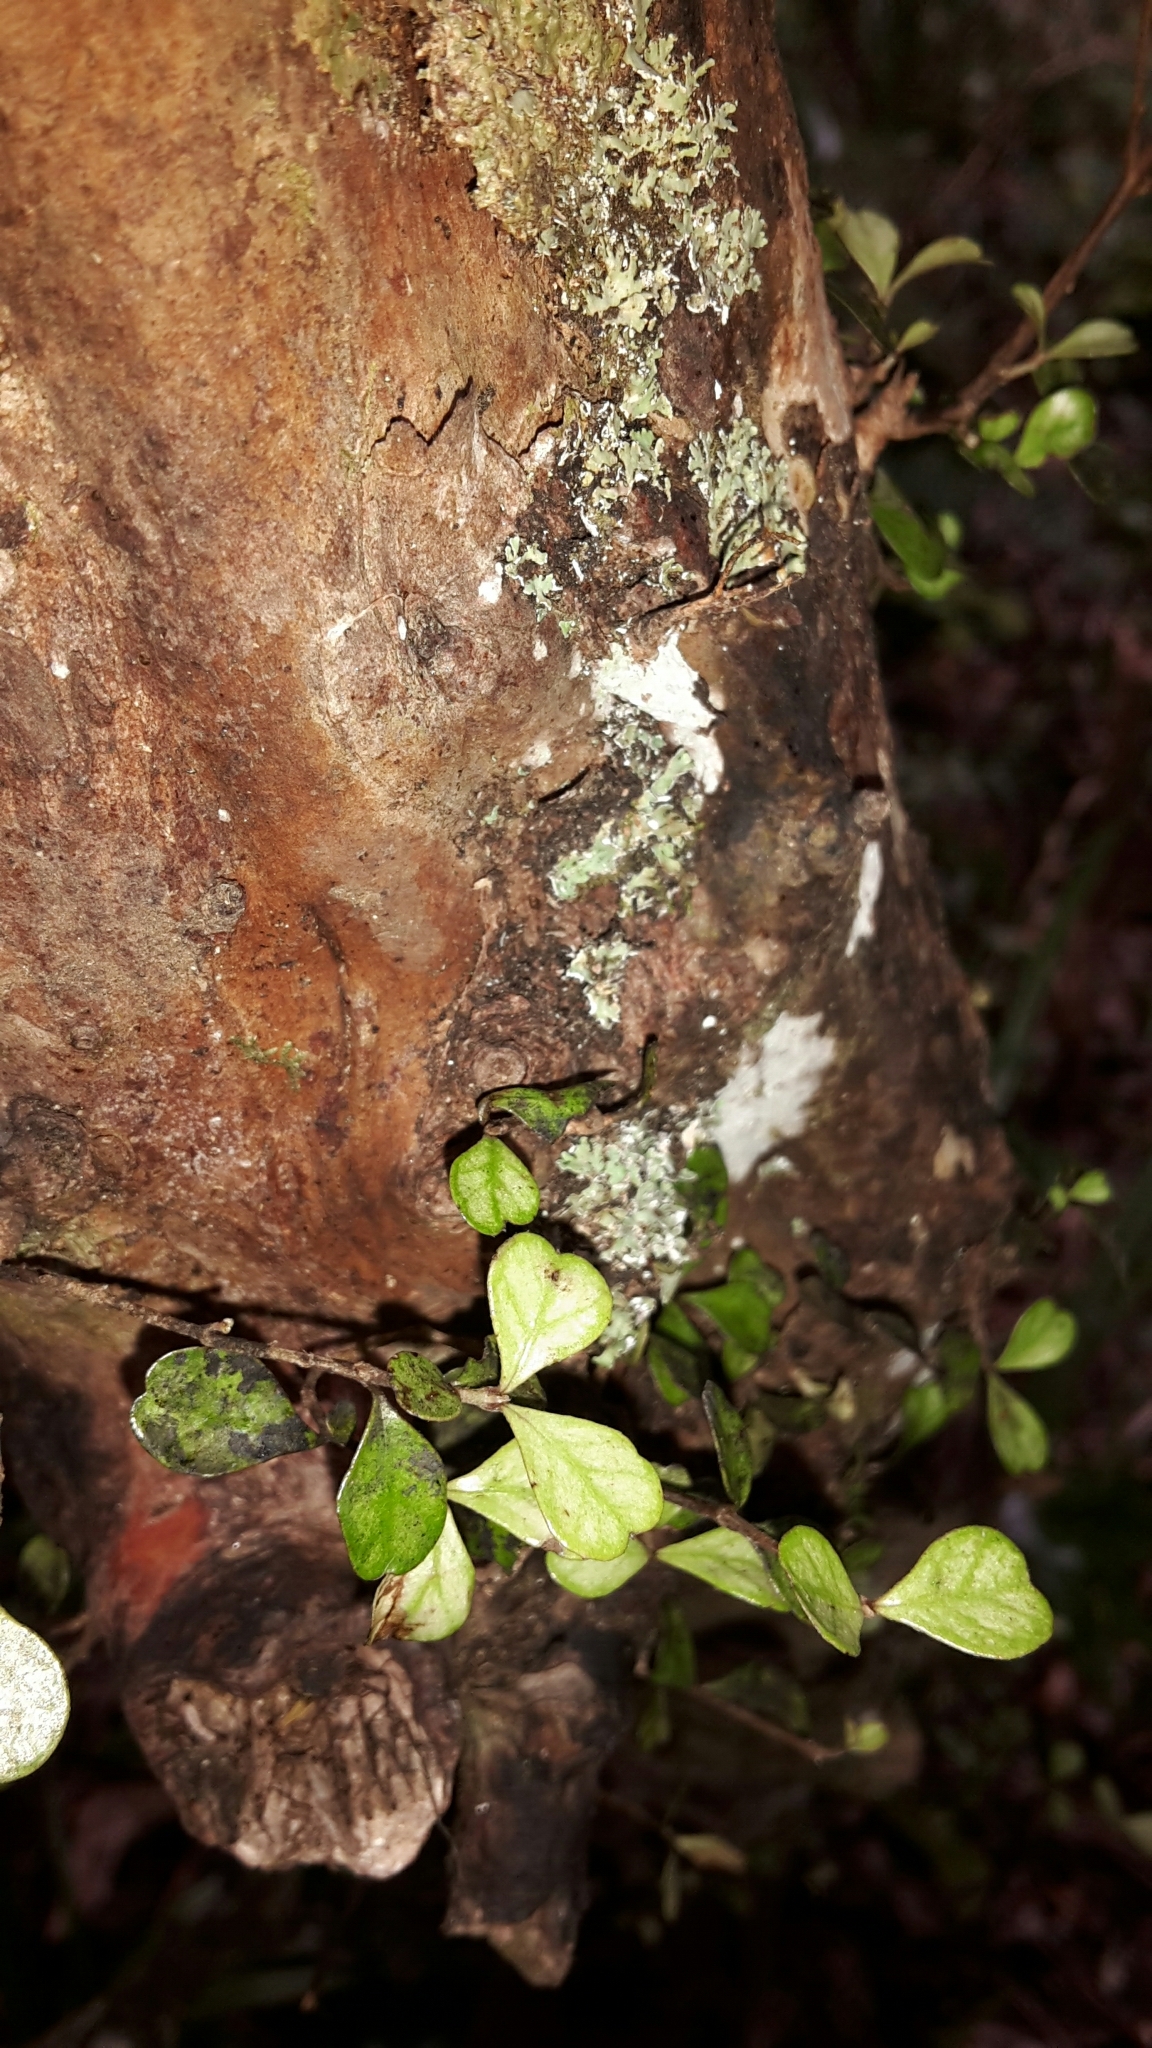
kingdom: Plantae
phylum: Tracheophyta
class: Magnoliopsida
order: Myrtales
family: Myrtaceae
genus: Lophomyrtus
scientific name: Lophomyrtus obcordata
